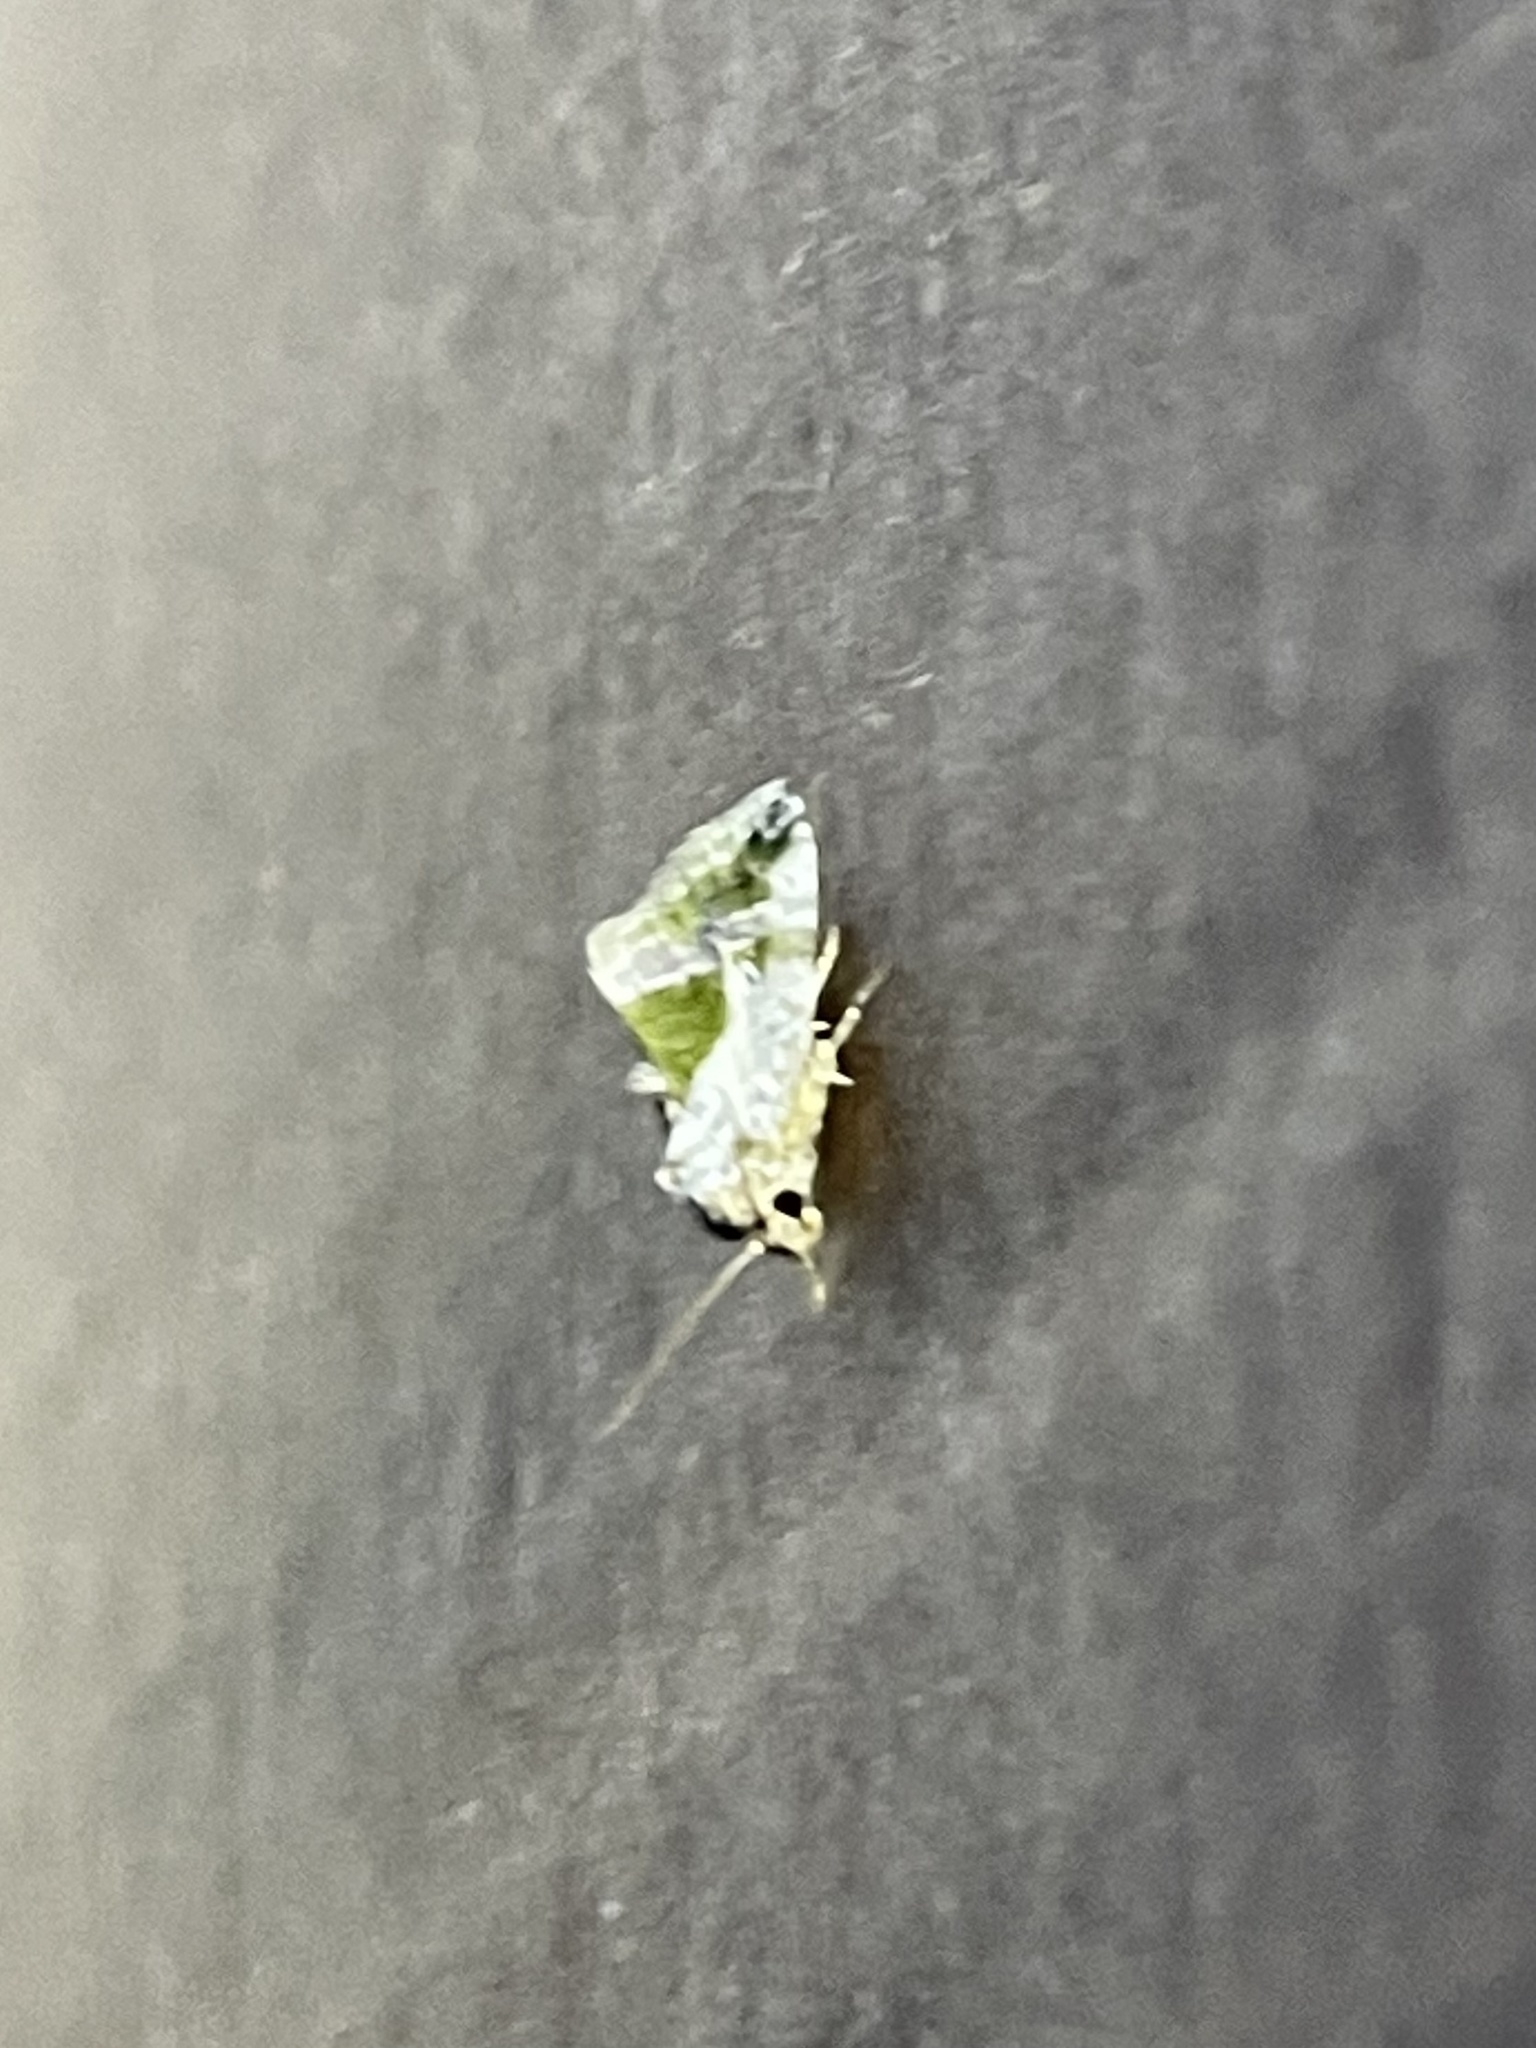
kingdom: Animalia
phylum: Arthropoda
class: Insecta
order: Lepidoptera
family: Noctuidae
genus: Maliattha
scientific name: Maliattha synochitis
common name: Black-dotted glyph
